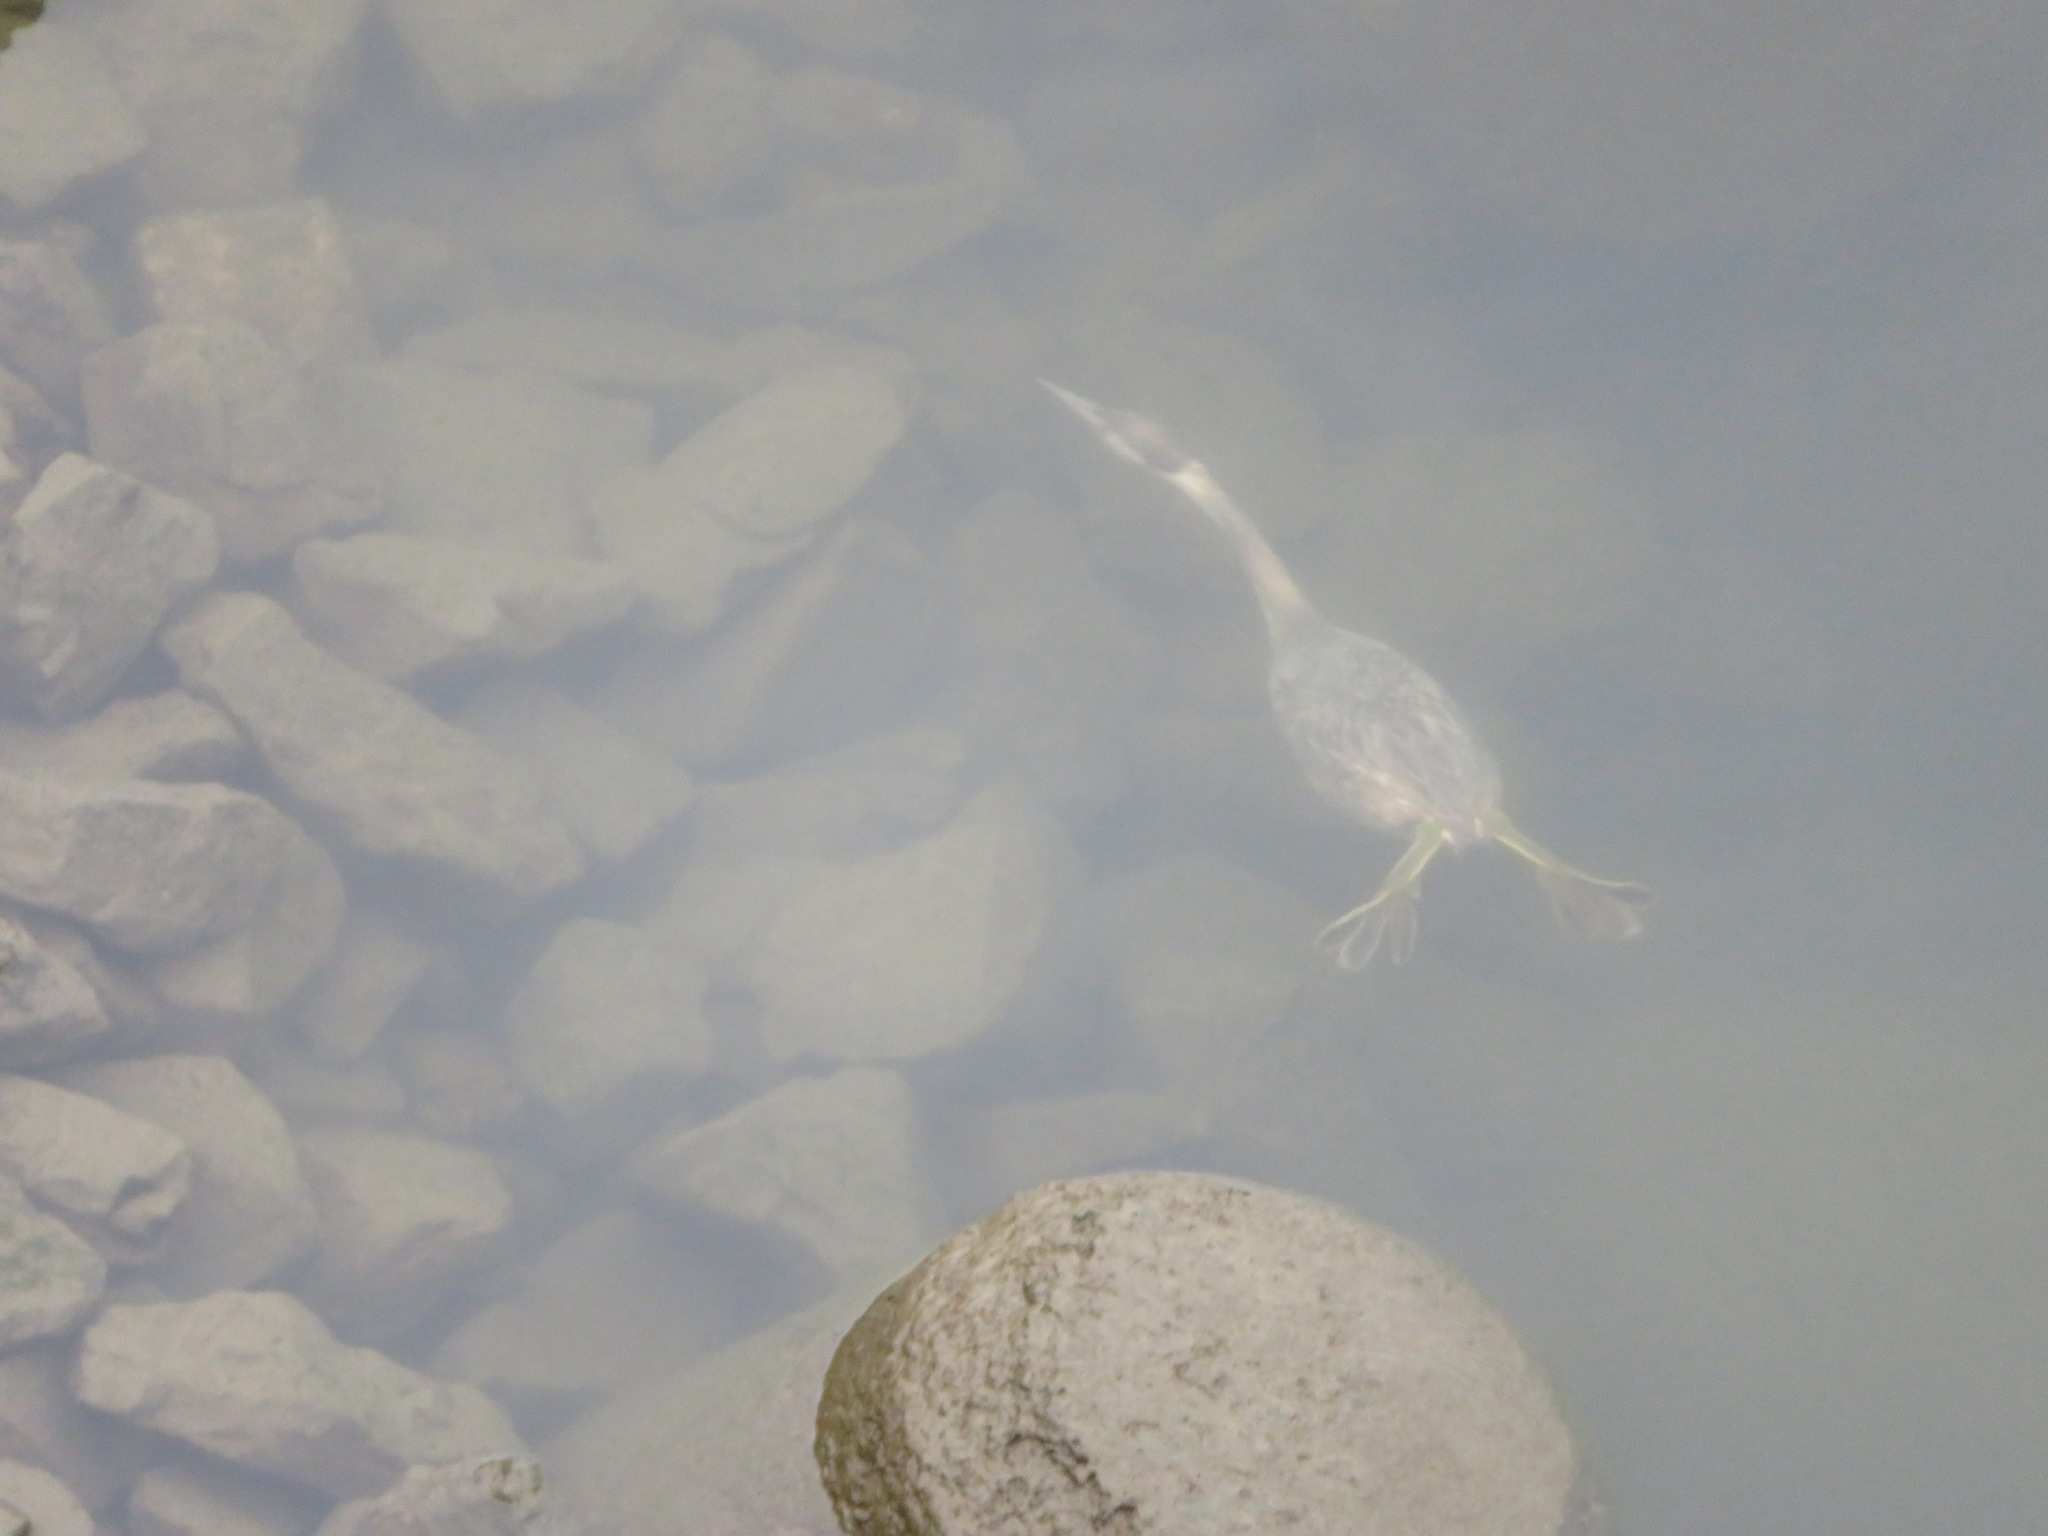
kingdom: Animalia
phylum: Chordata
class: Aves
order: Podicipediformes
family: Podicipedidae
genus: Podiceps
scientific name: Podiceps cristatus
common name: Great crested grebe
